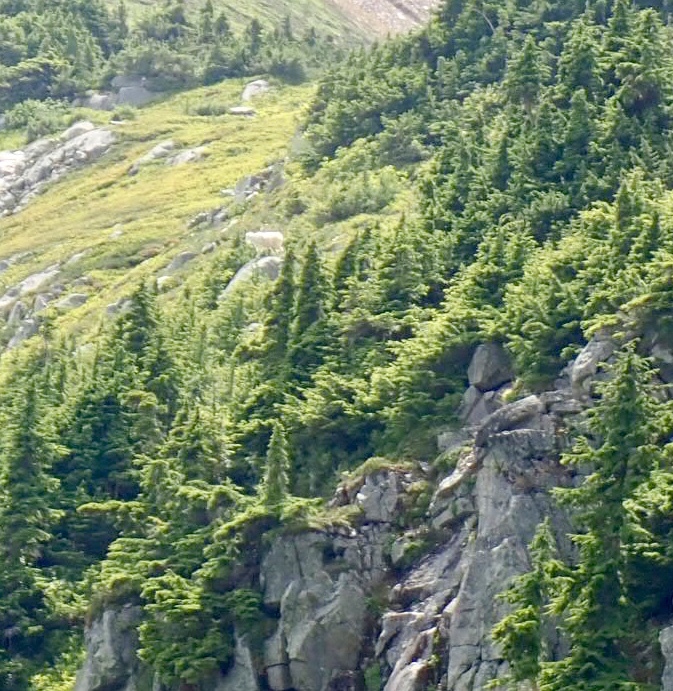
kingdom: Animalia
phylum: Chordata
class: Mammalia
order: Artiodactyla
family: Bovidae
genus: Oreamnos
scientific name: Oreamnos americanus
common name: Mountain goat
